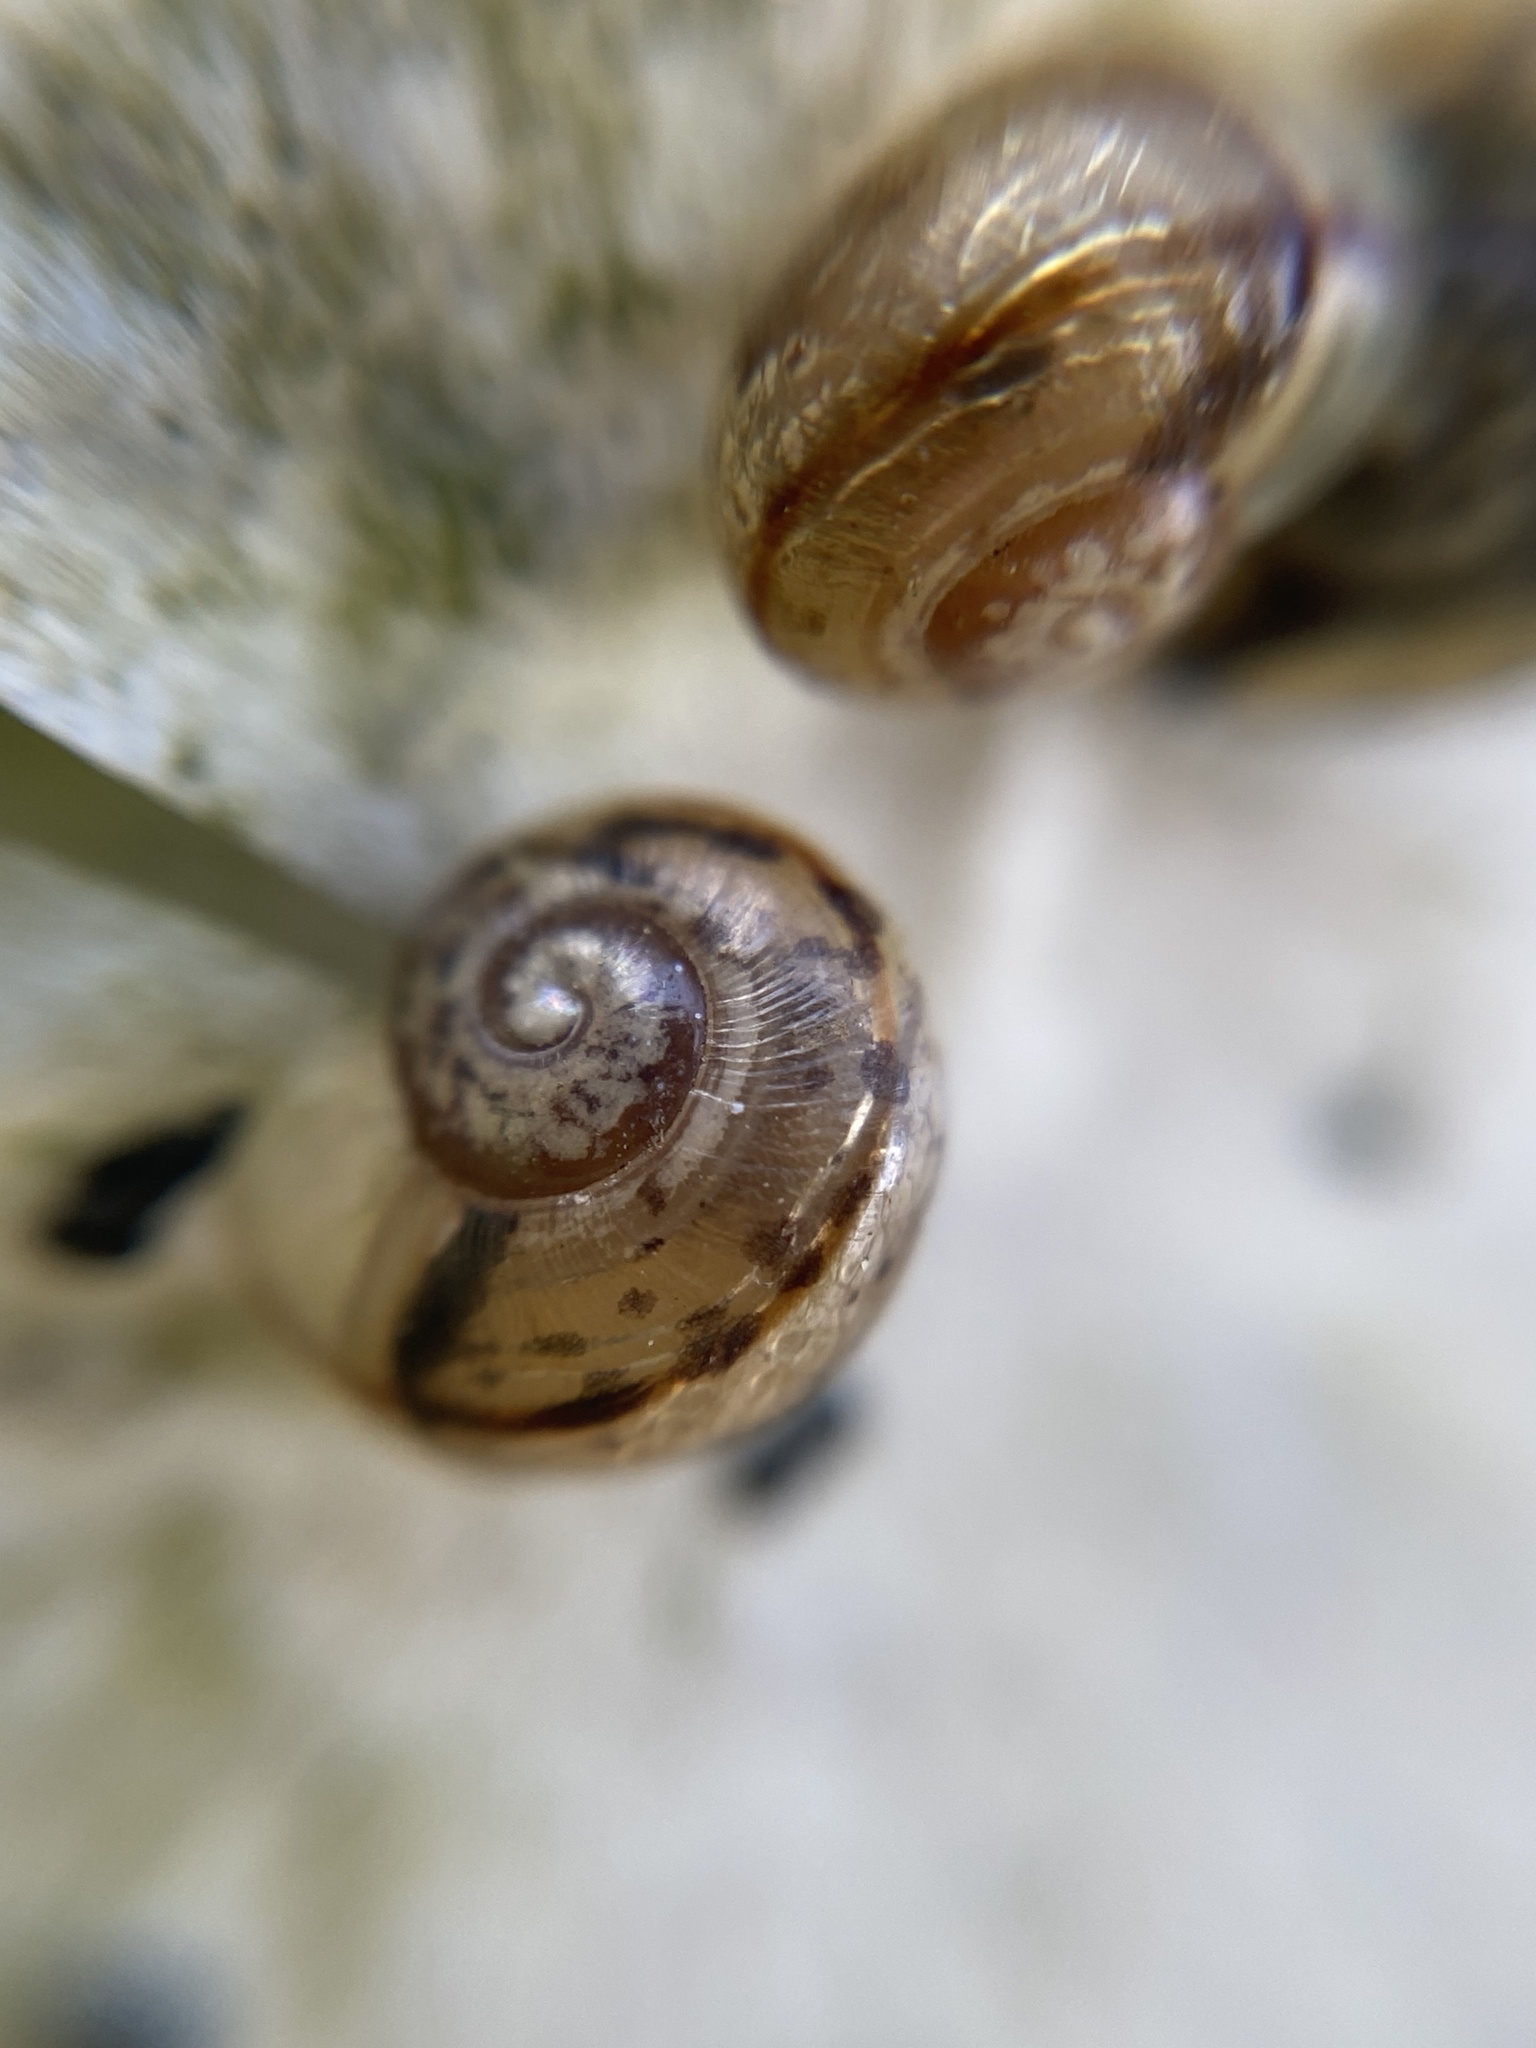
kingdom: Animalia
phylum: Mollusca
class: Gastropoda
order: Stylommatophora
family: Hygromiidae
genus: Hygromia
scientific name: Hygromia cinctella
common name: Girdled snail
